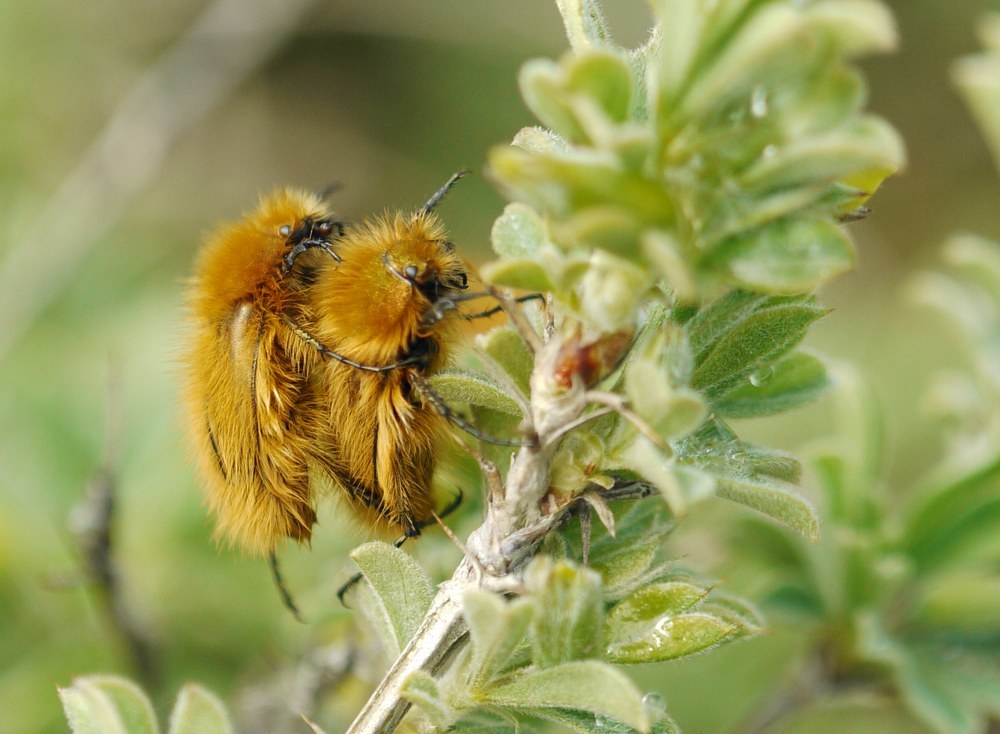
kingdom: Animalia
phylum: Arthropoda
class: Insecta
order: Coleoptera
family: Glaphyridae
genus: Pygopleurus
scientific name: Pygopleurus vulpes
